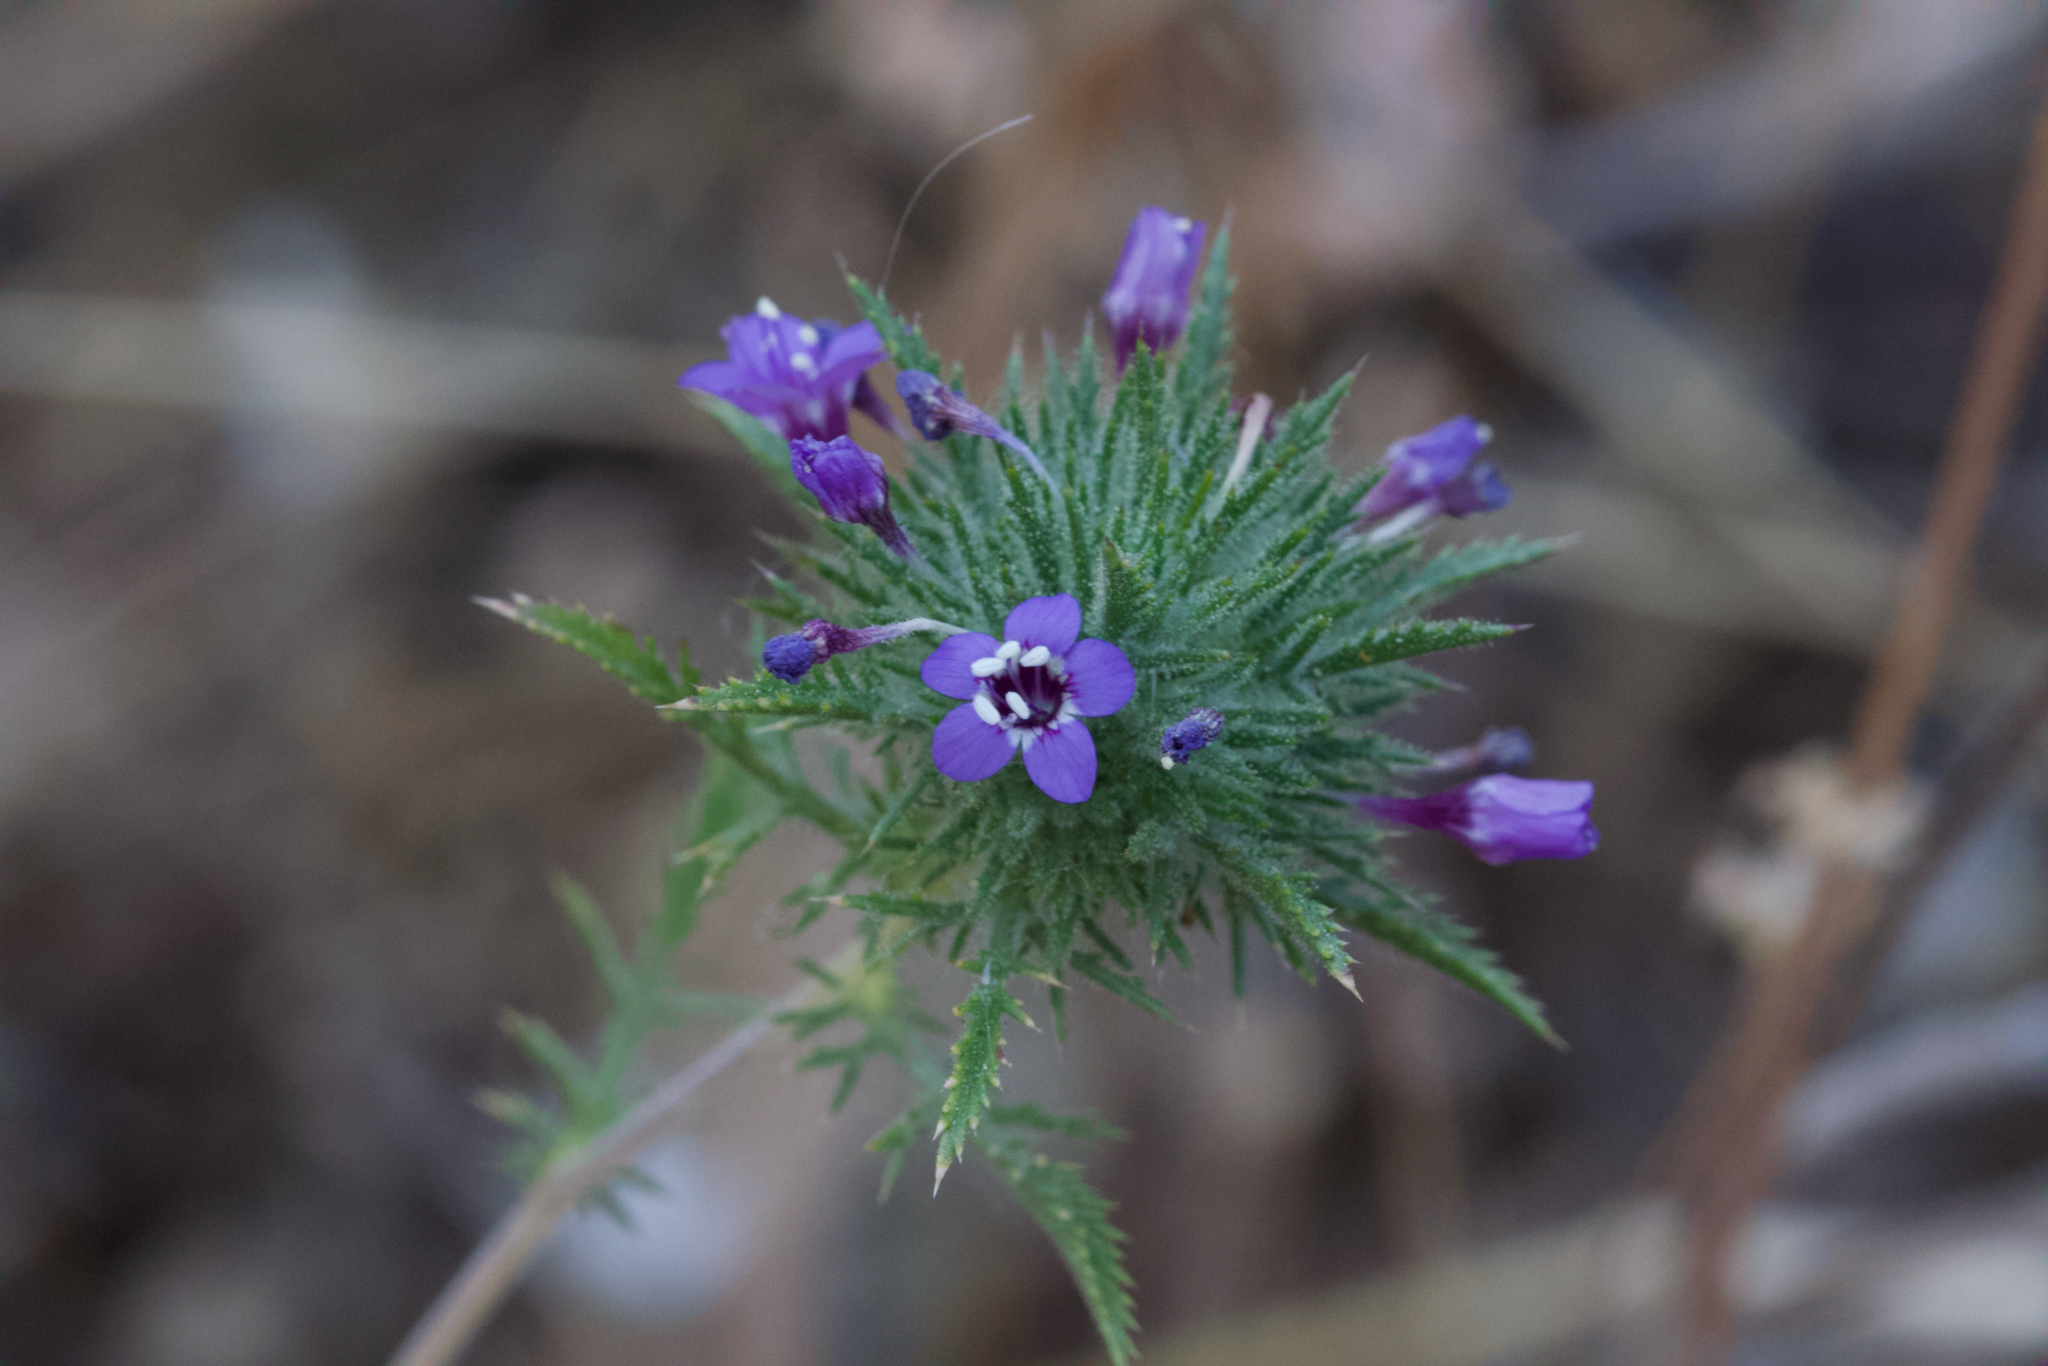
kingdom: Plantae
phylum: Tracheophyta
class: Magnoliopsida
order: Ericales
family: Polemoniaceae
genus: Navarretia
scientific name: Navarretia pubescens
